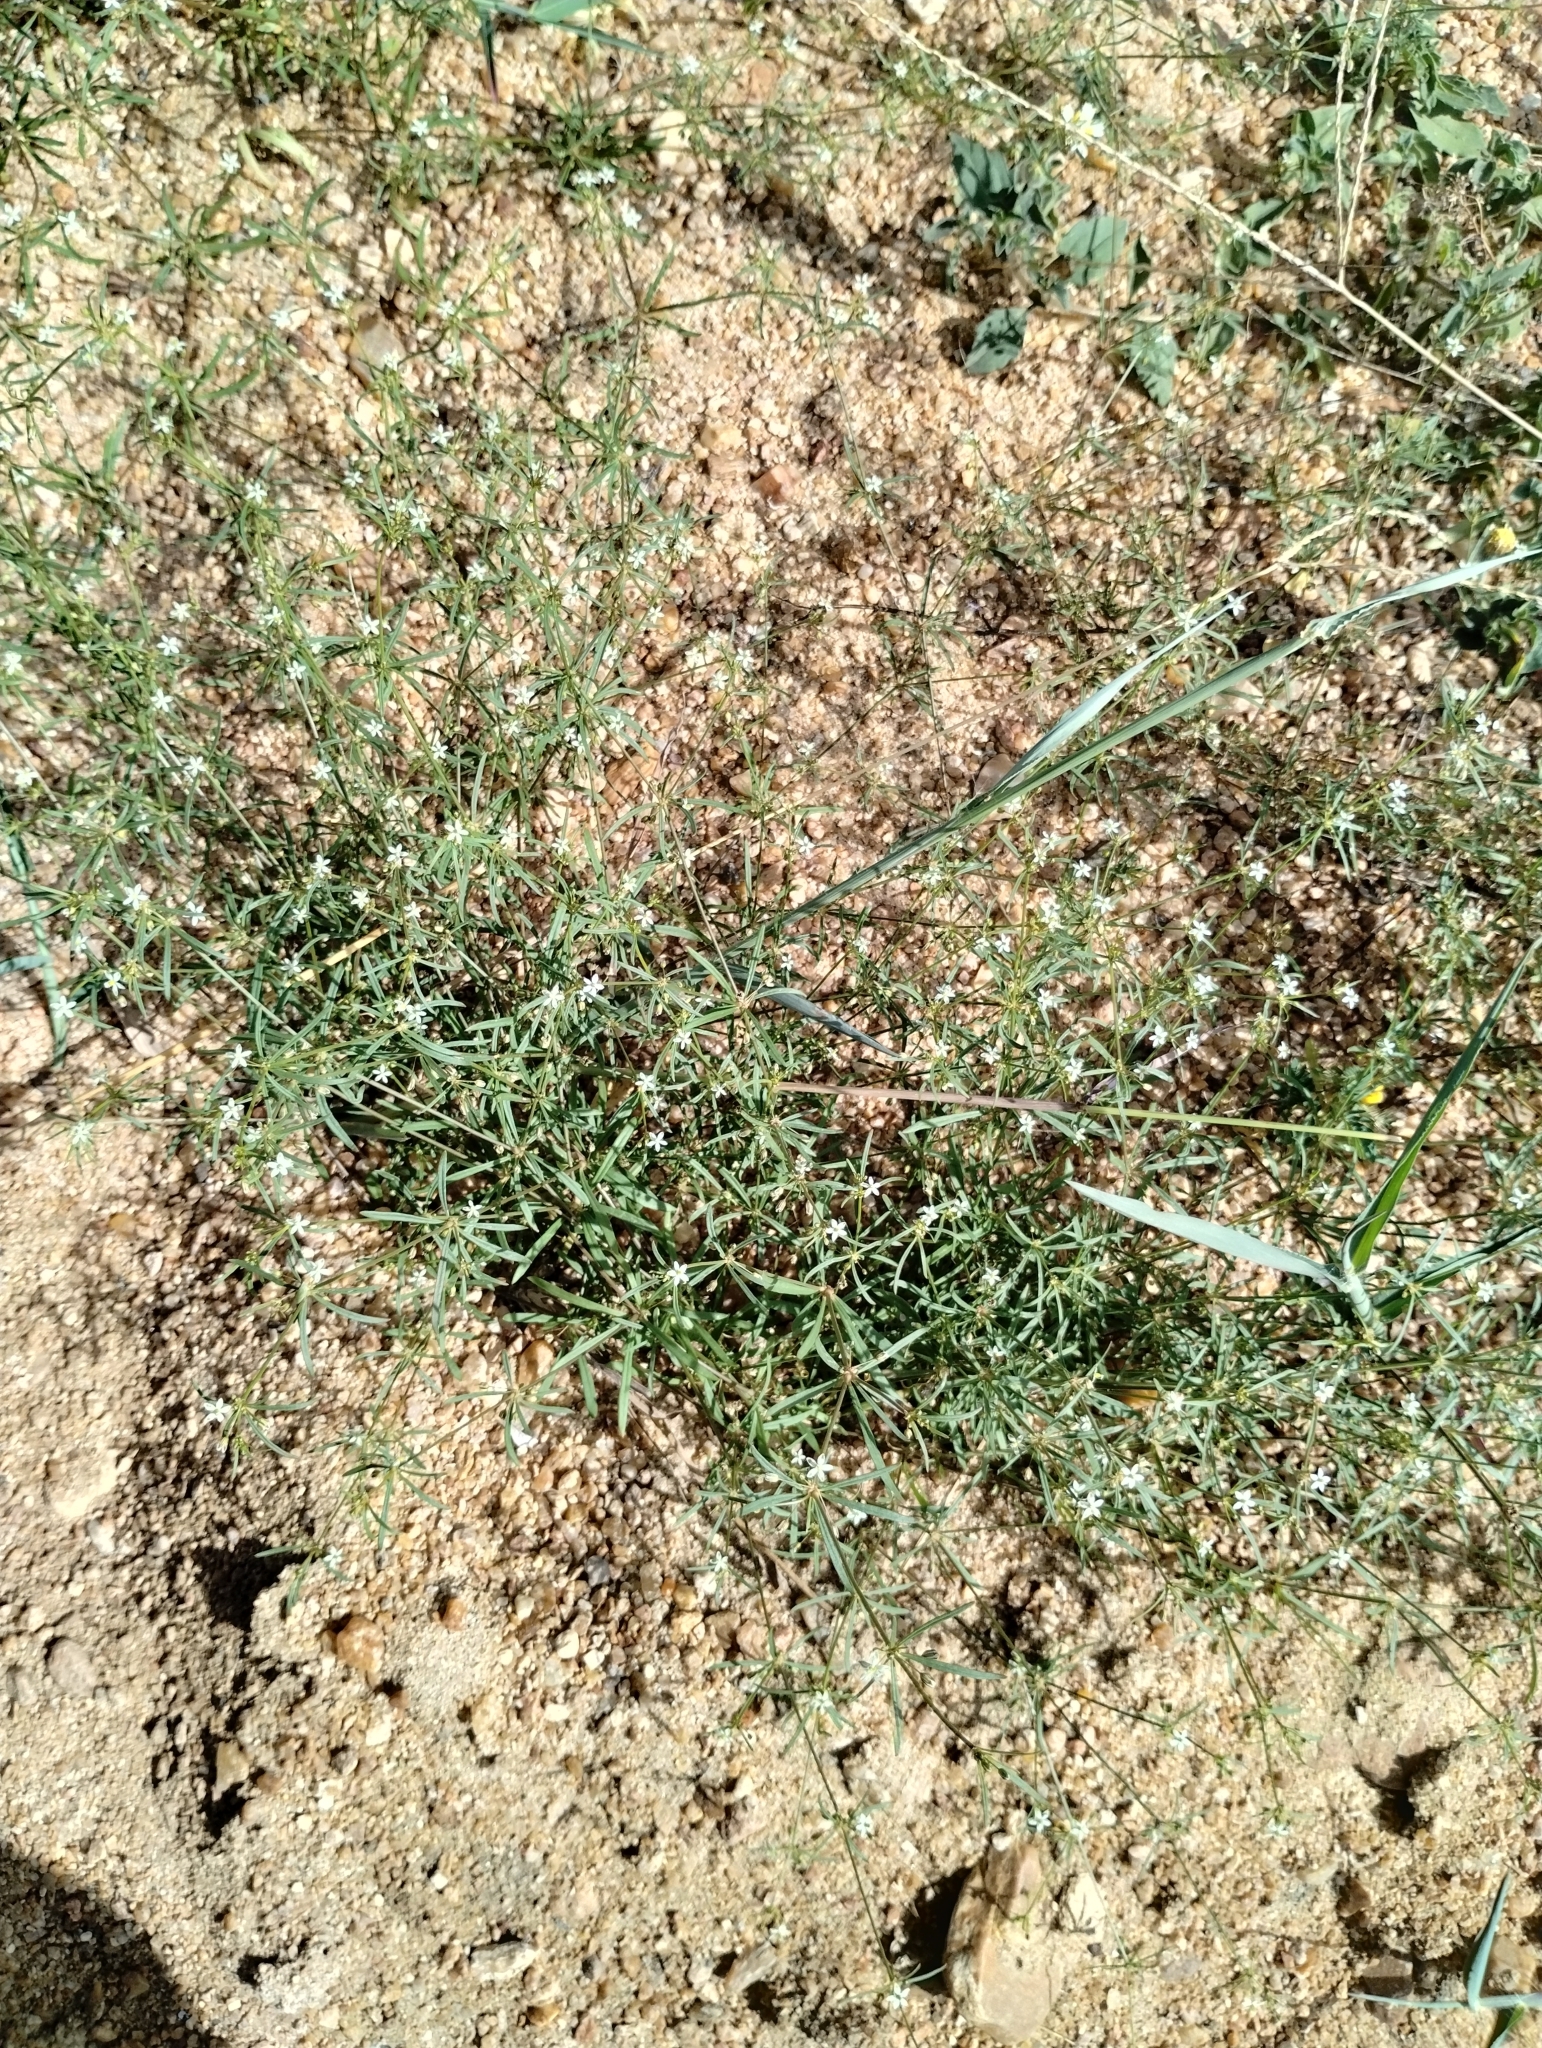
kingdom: Plantae
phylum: Tracheophyta
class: Magnoliopsida
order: Caryophyllales
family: Molluginaceae
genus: Mollugo
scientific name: Mollugo verticillata
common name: Green carpetweed
